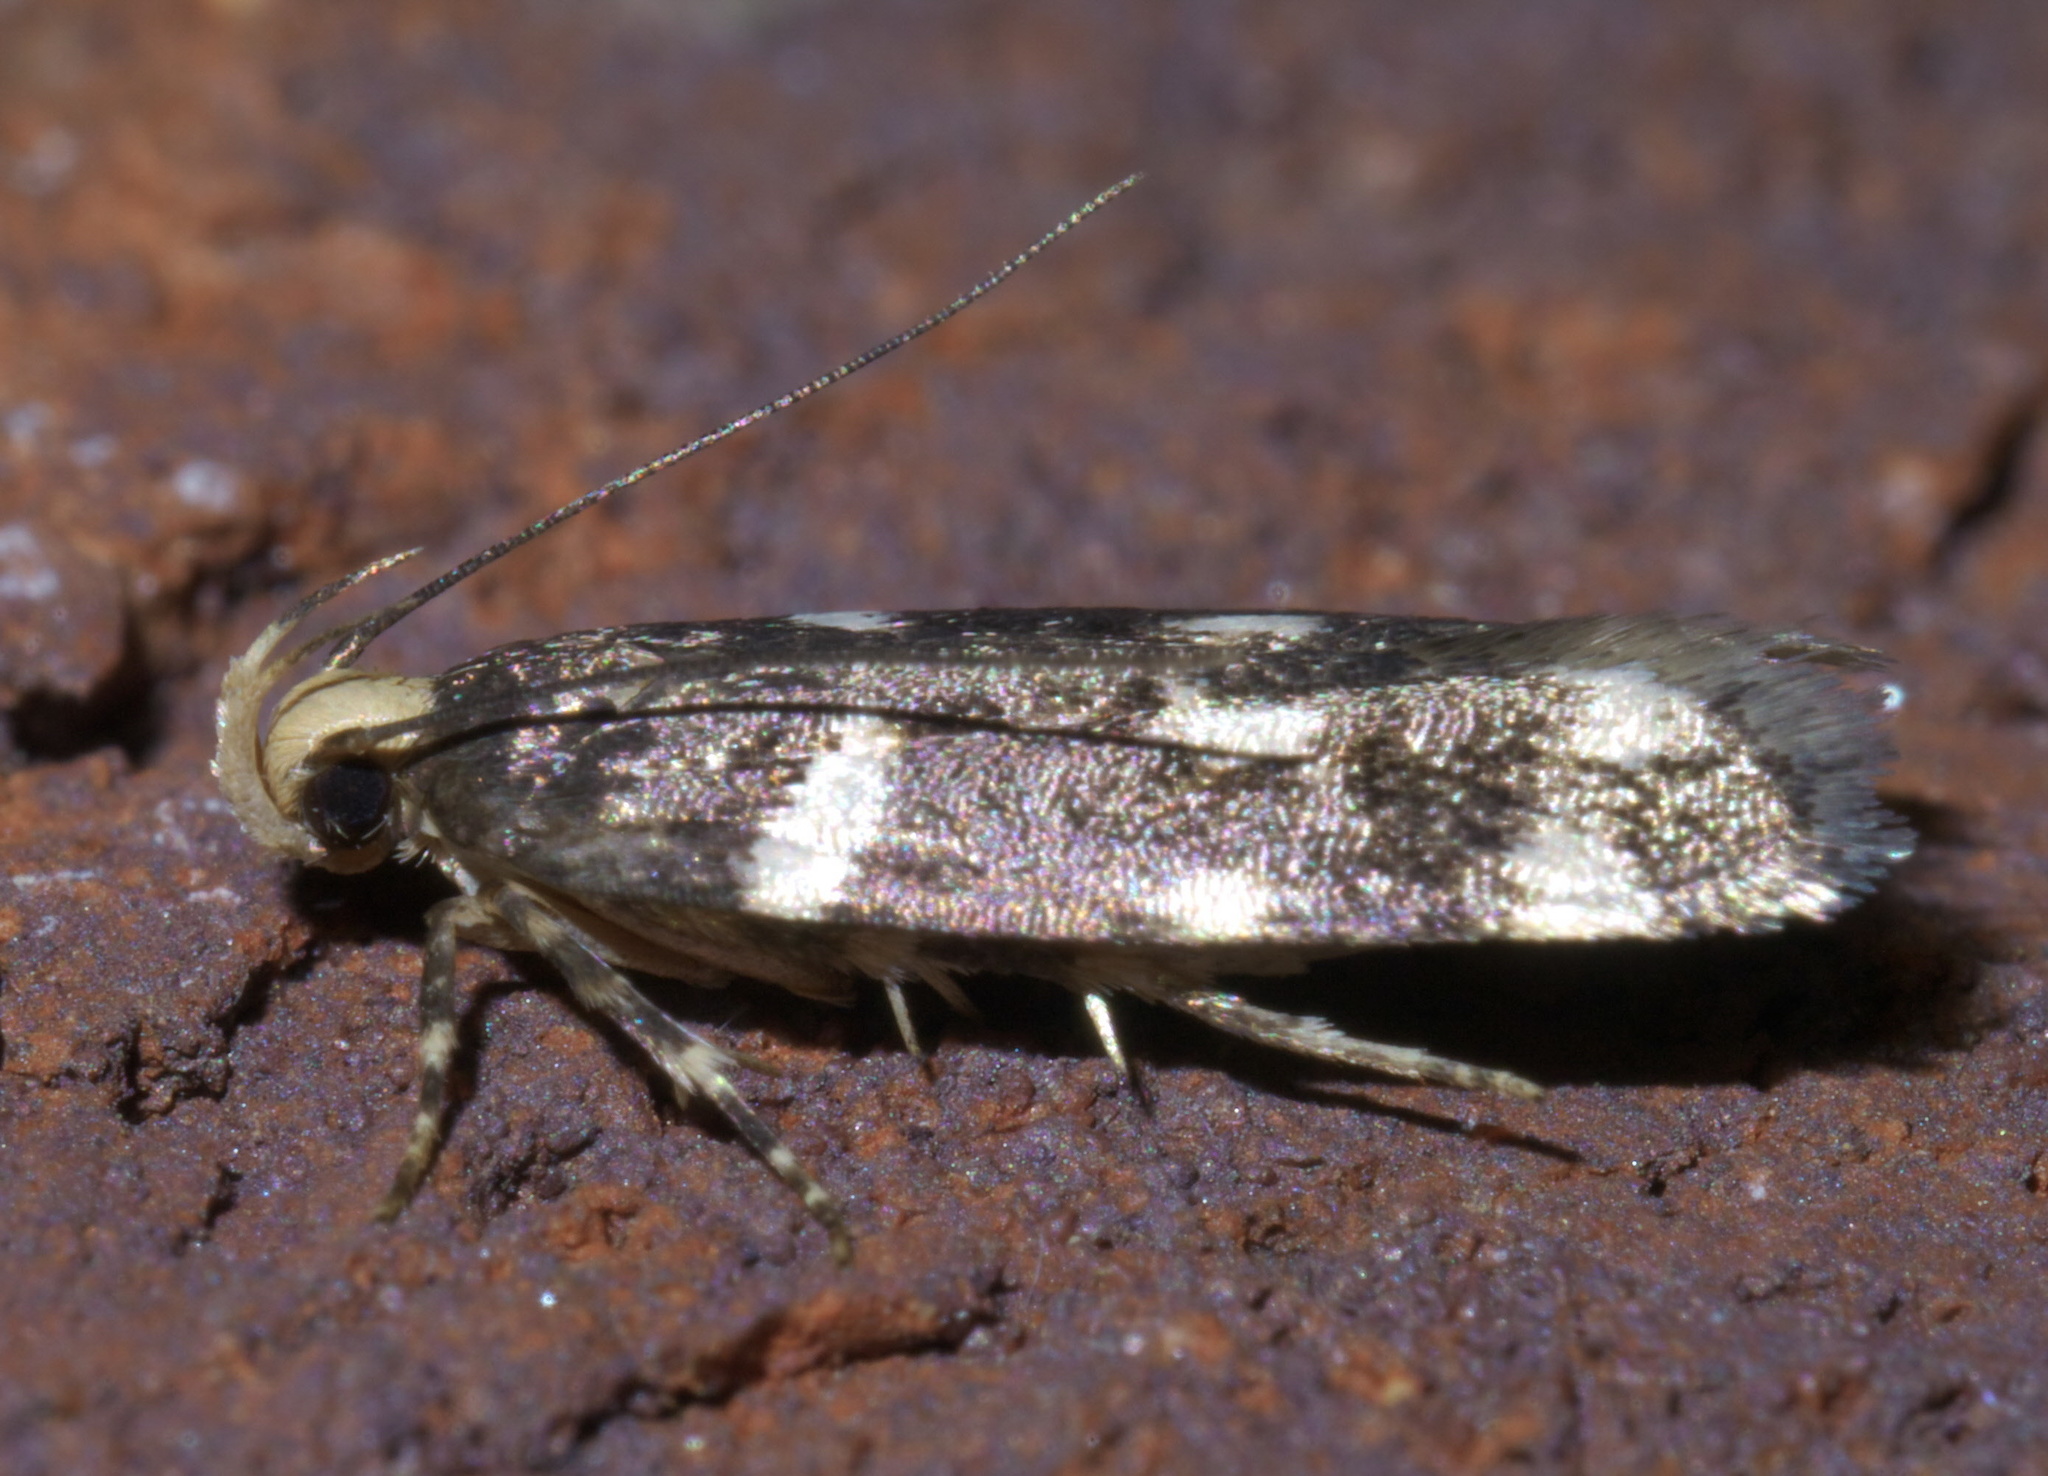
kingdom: Animalia
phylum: Arthropoda
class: Insecta
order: Lepidoptera
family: Gelechiidae
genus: Fascista
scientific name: Fascista quinella
